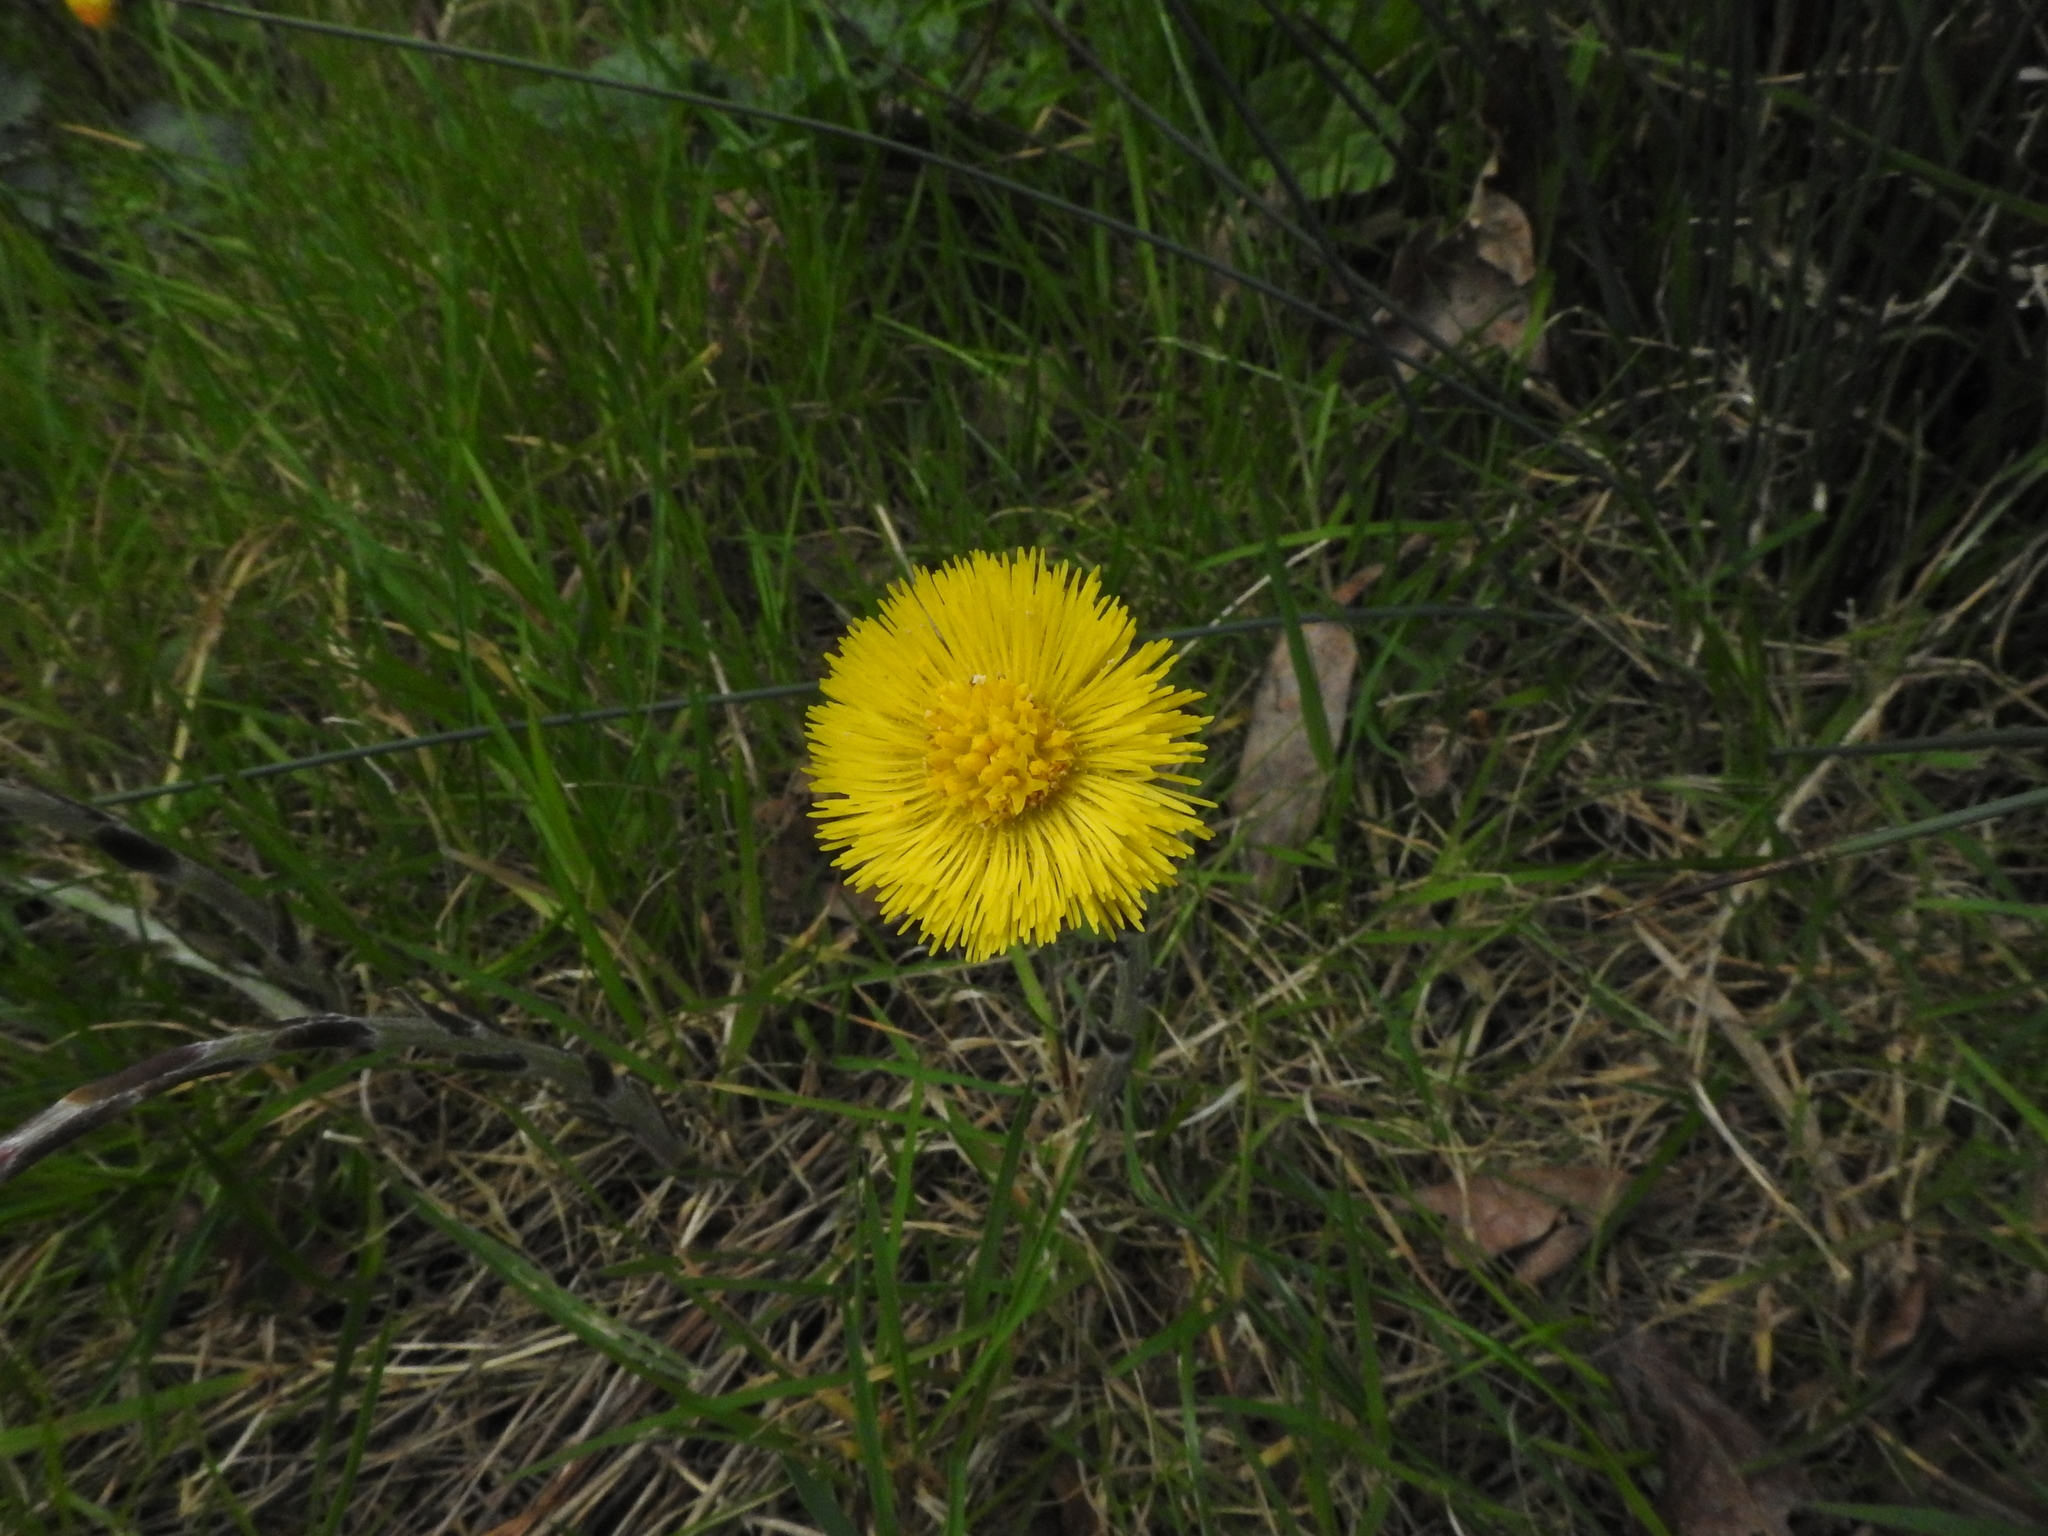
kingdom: Plantae
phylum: Tracheophyta
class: Magnoliopsida
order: Asterales
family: Asteraceae
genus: Tussilago
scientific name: Tussilago farfara
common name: Coltsfoot
